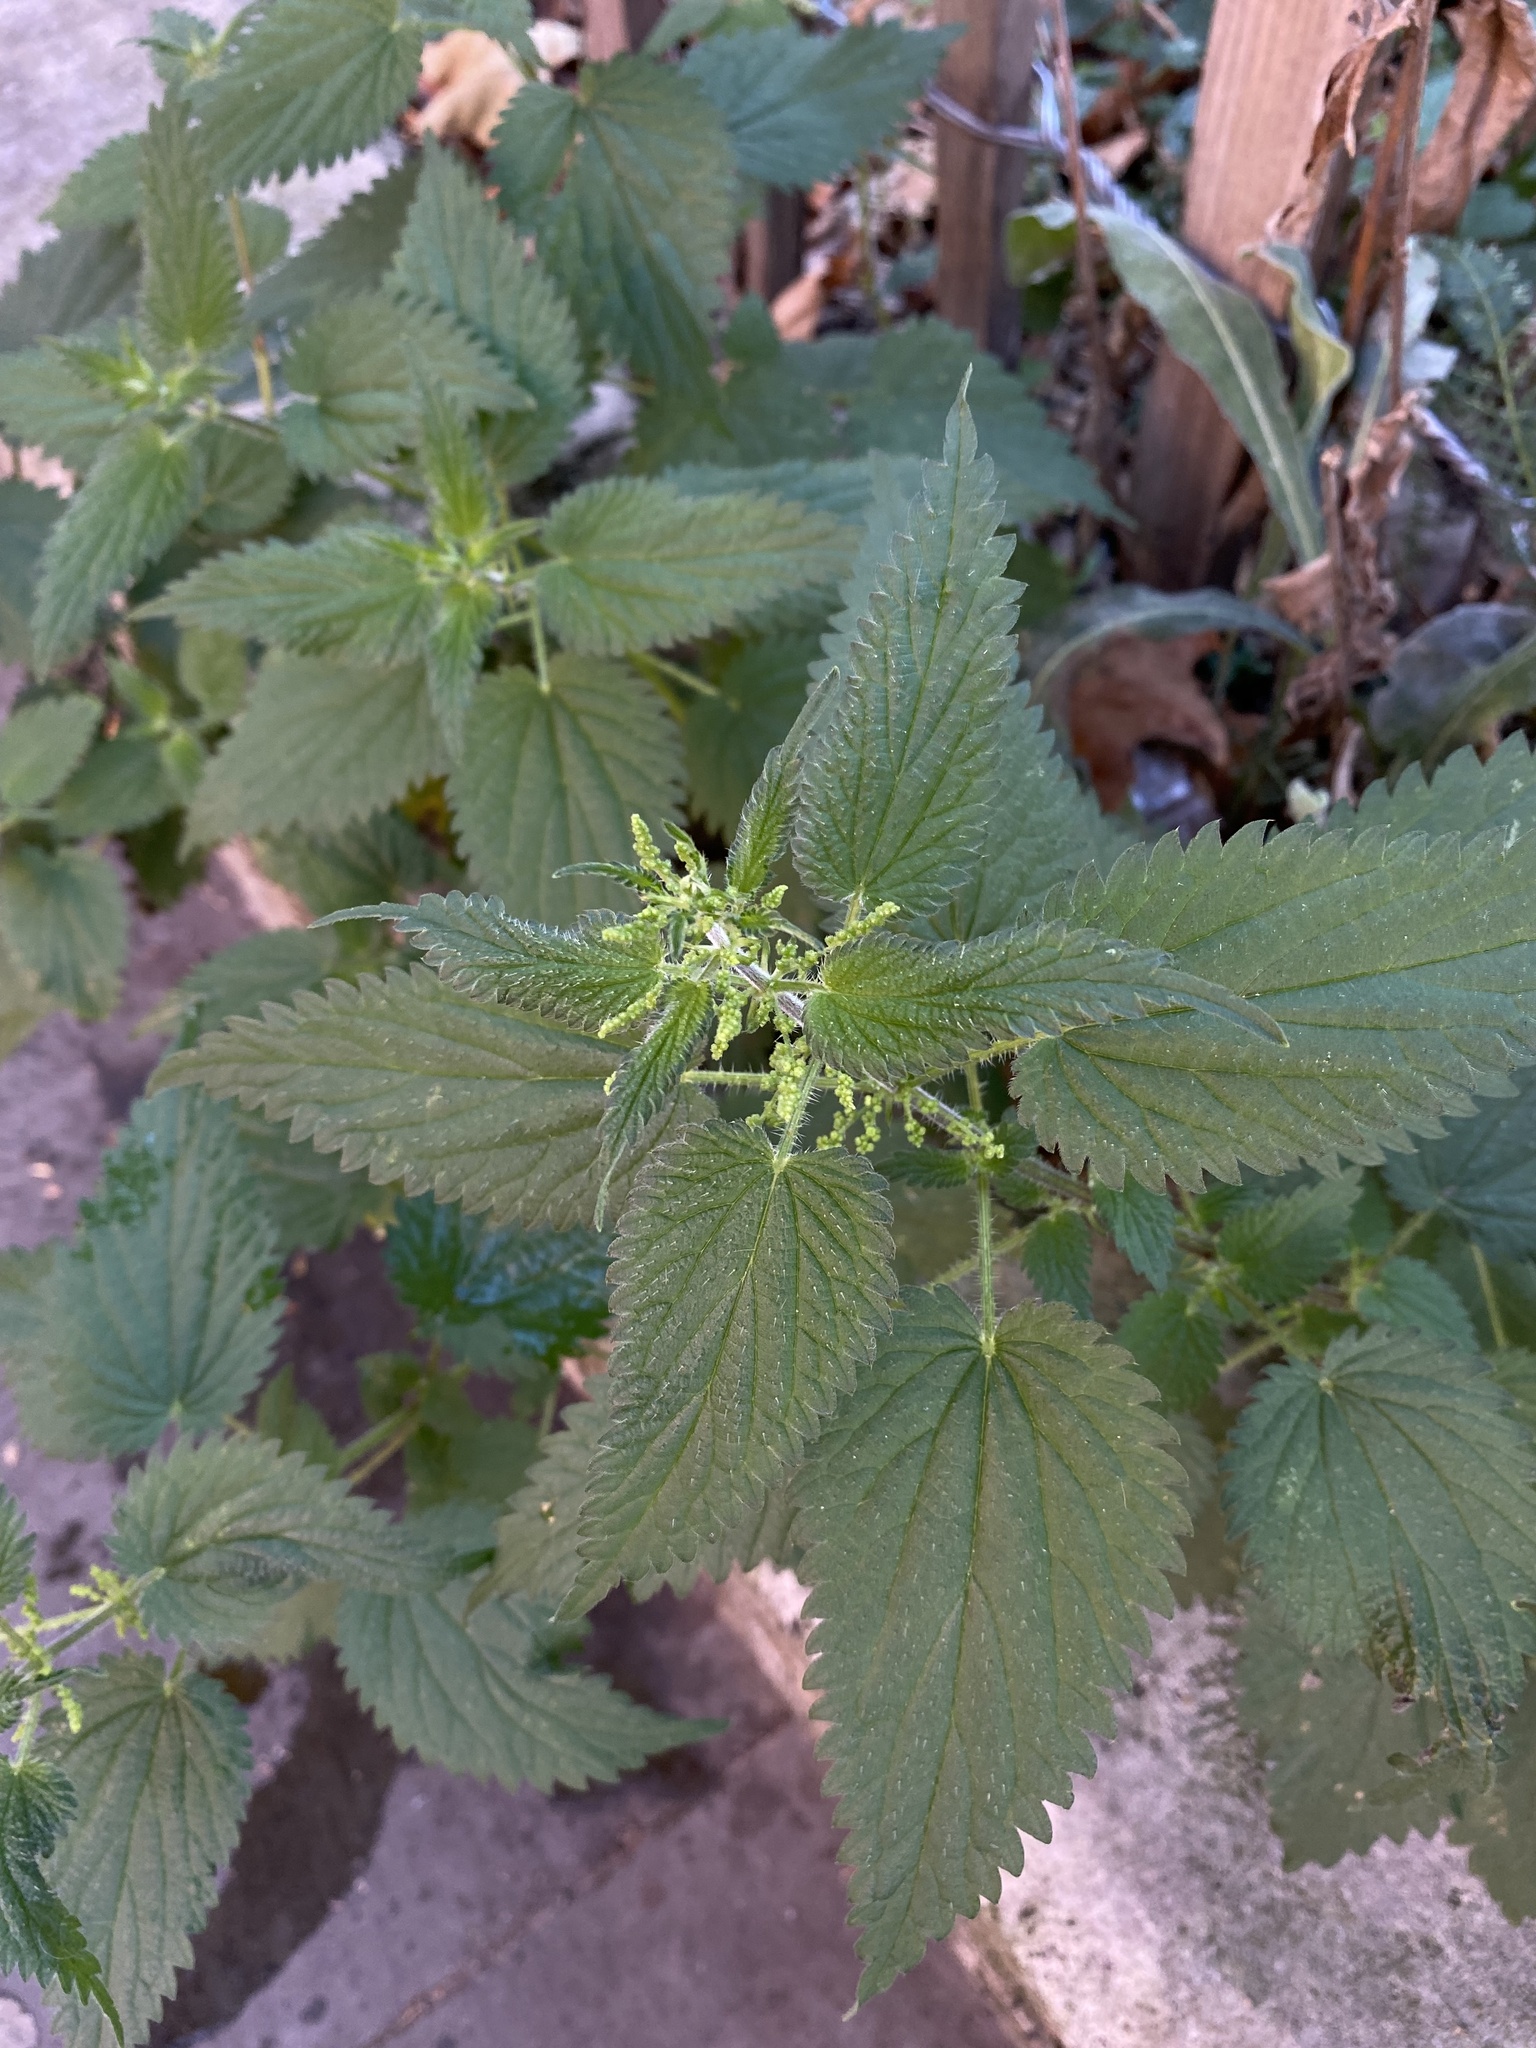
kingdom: Plantae
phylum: Tracheophyta
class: Magnoliopsida
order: Rosales
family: Urticaceae
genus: Urtica
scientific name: Urtica dioica
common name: Common nettle
